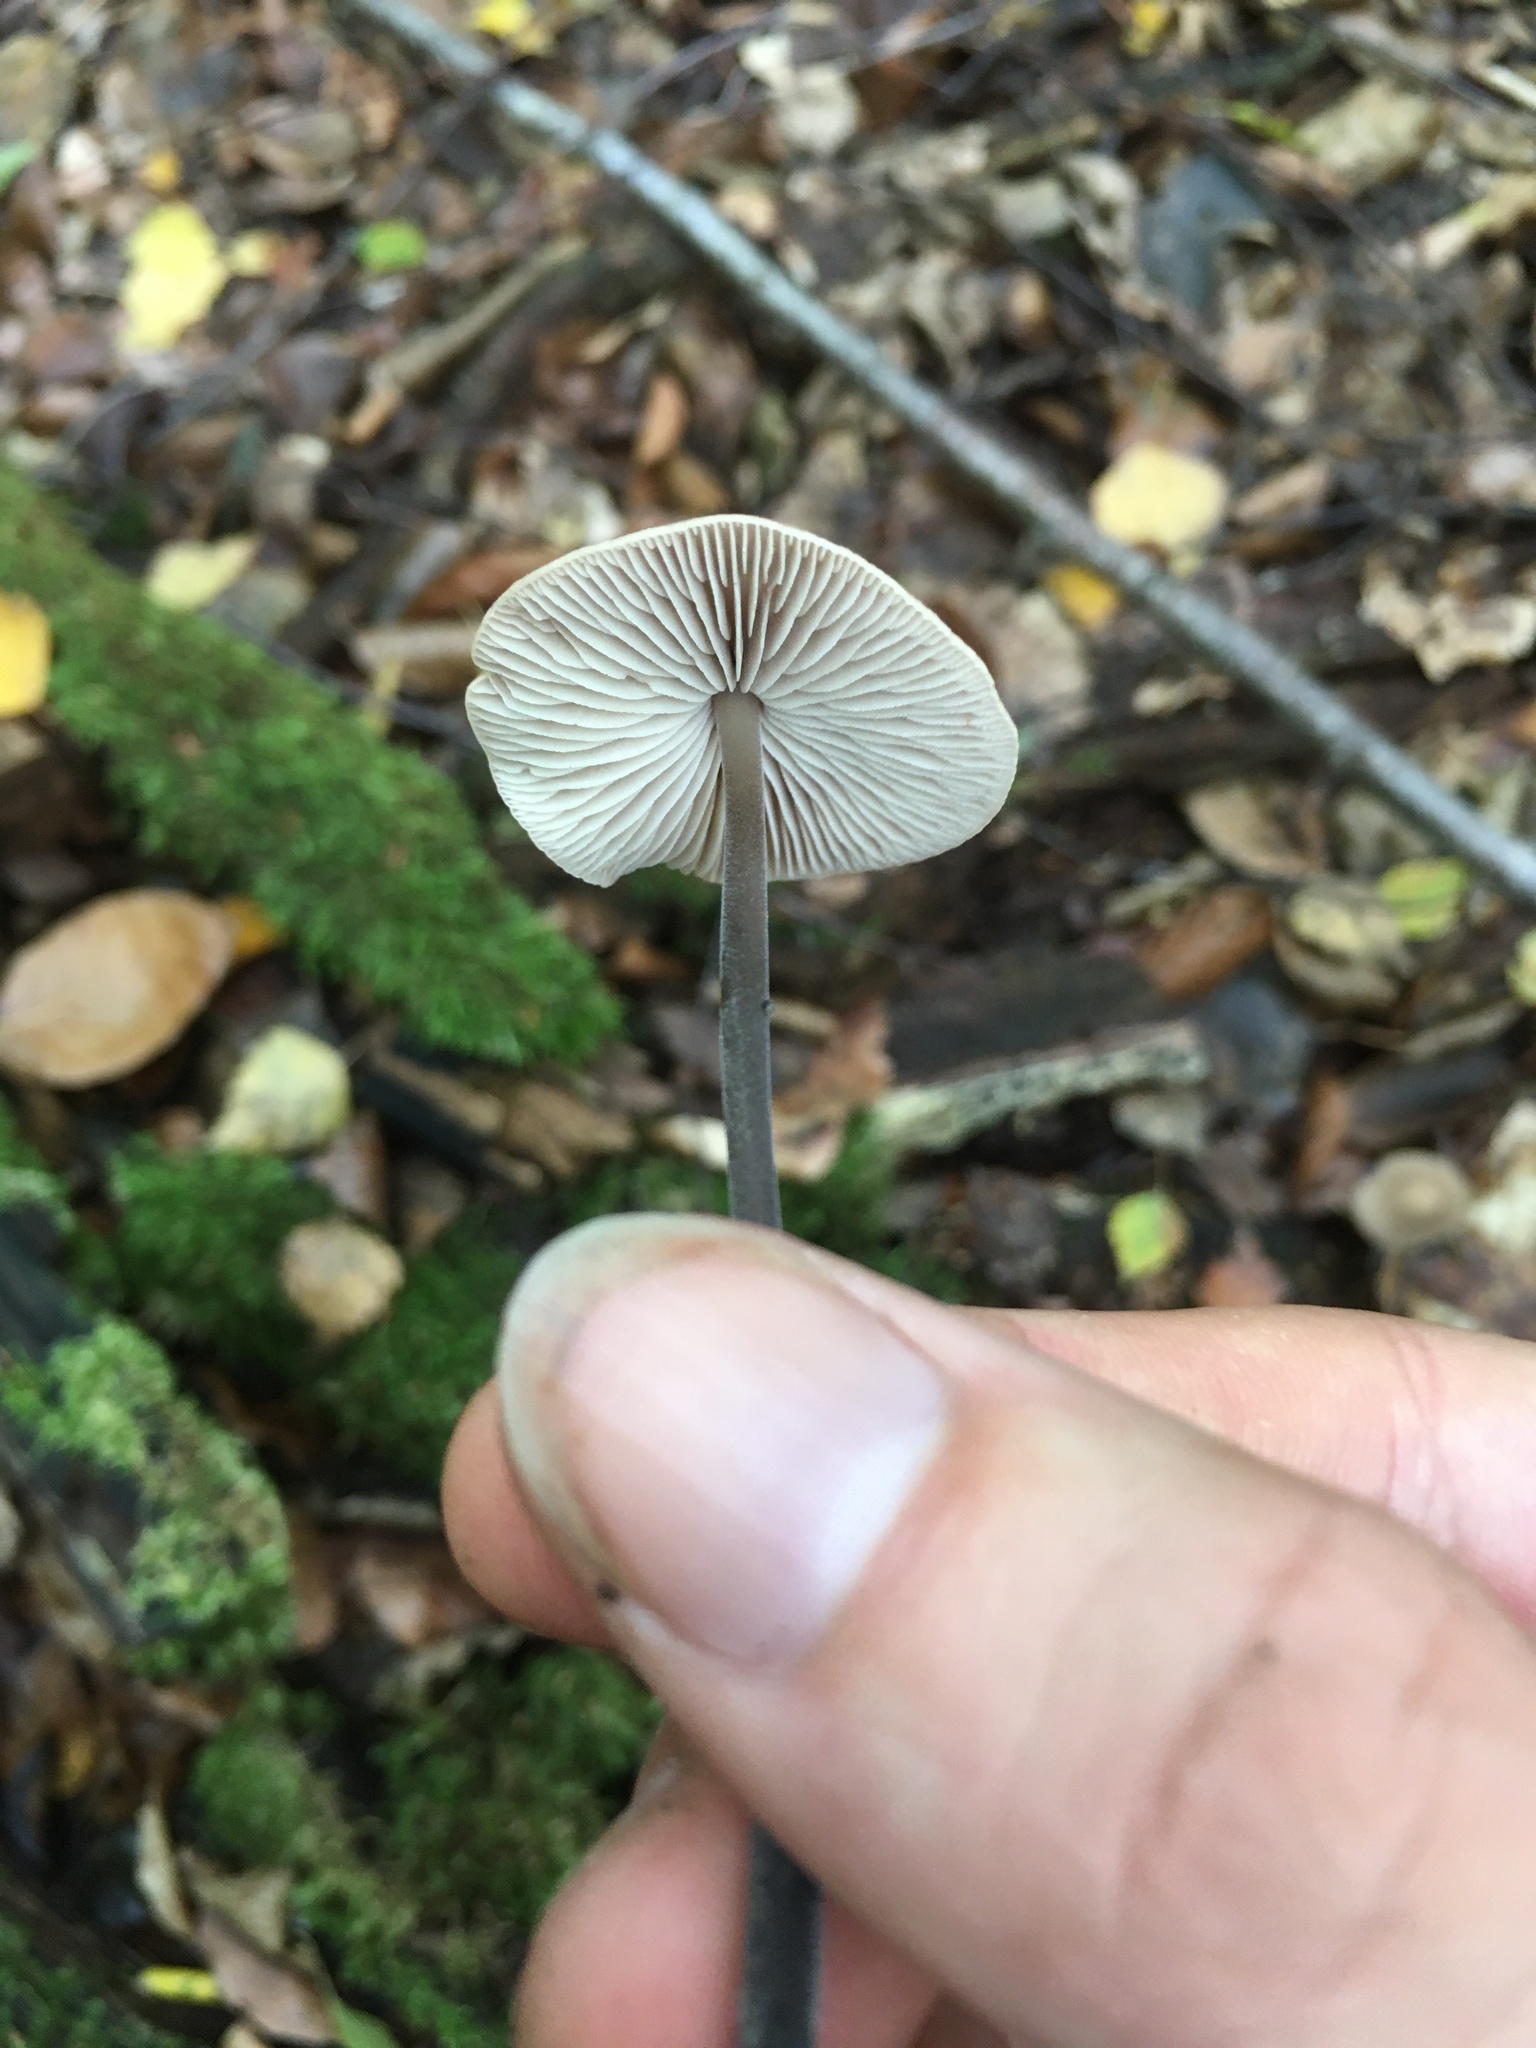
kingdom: Fungi
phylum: Basidiomycota
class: Agaricomycetes
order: Agaricales
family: Omphalotaceae
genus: Mycetinis
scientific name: Mycetinis alliaceus
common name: Garlic parachute
